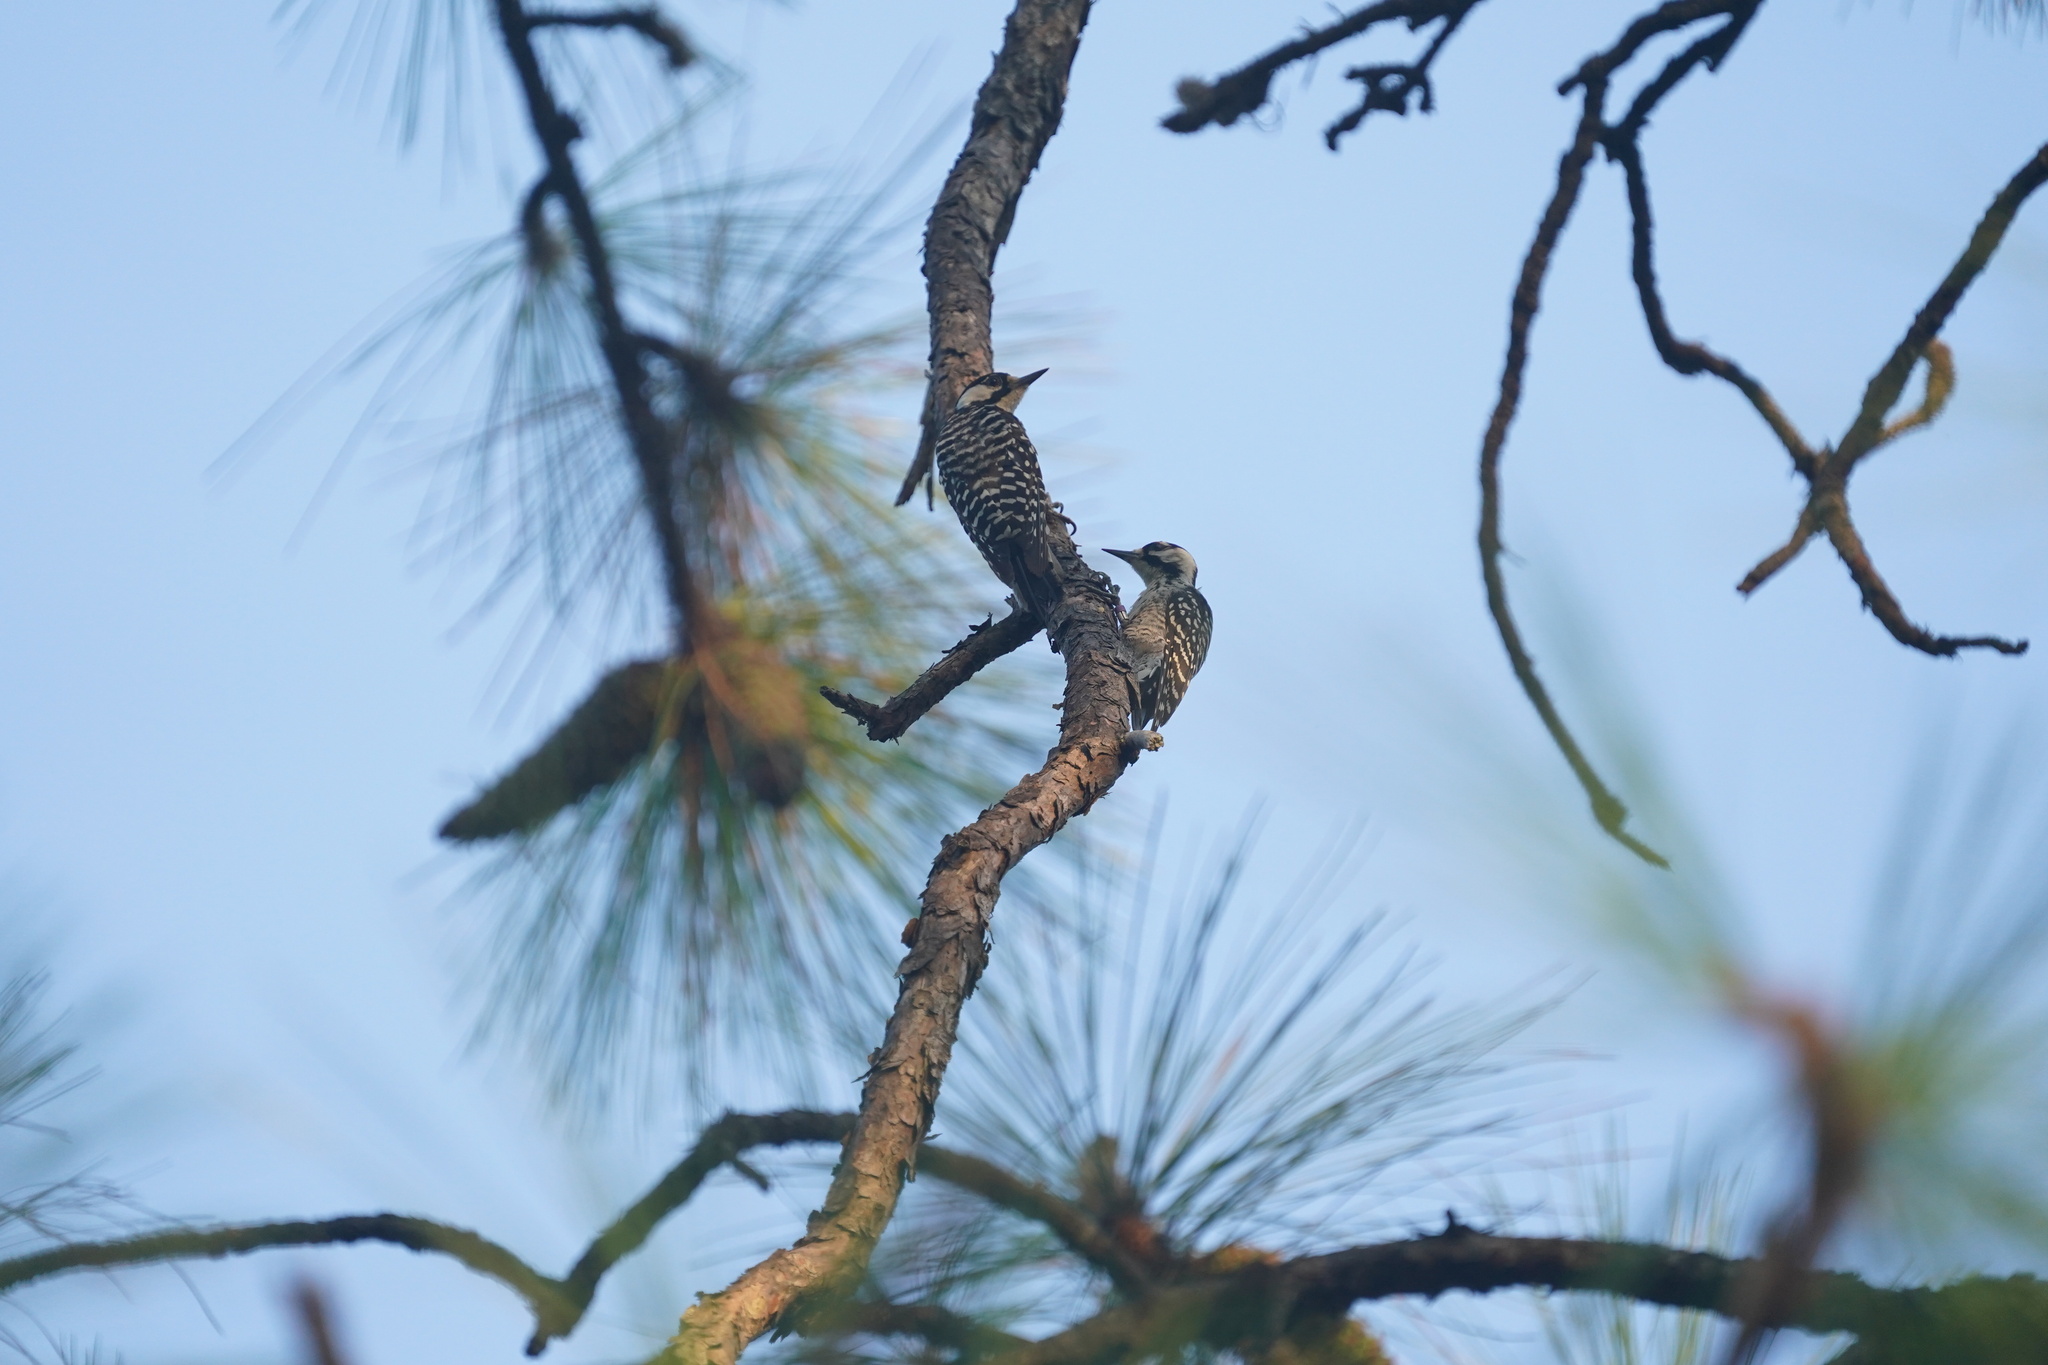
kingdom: Animalia
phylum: Chordata
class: Aves
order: Piciformes
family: Picidae
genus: Leuconotopicus
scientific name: Leuconotopicus borealis
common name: Red-cockaded woodpecker
